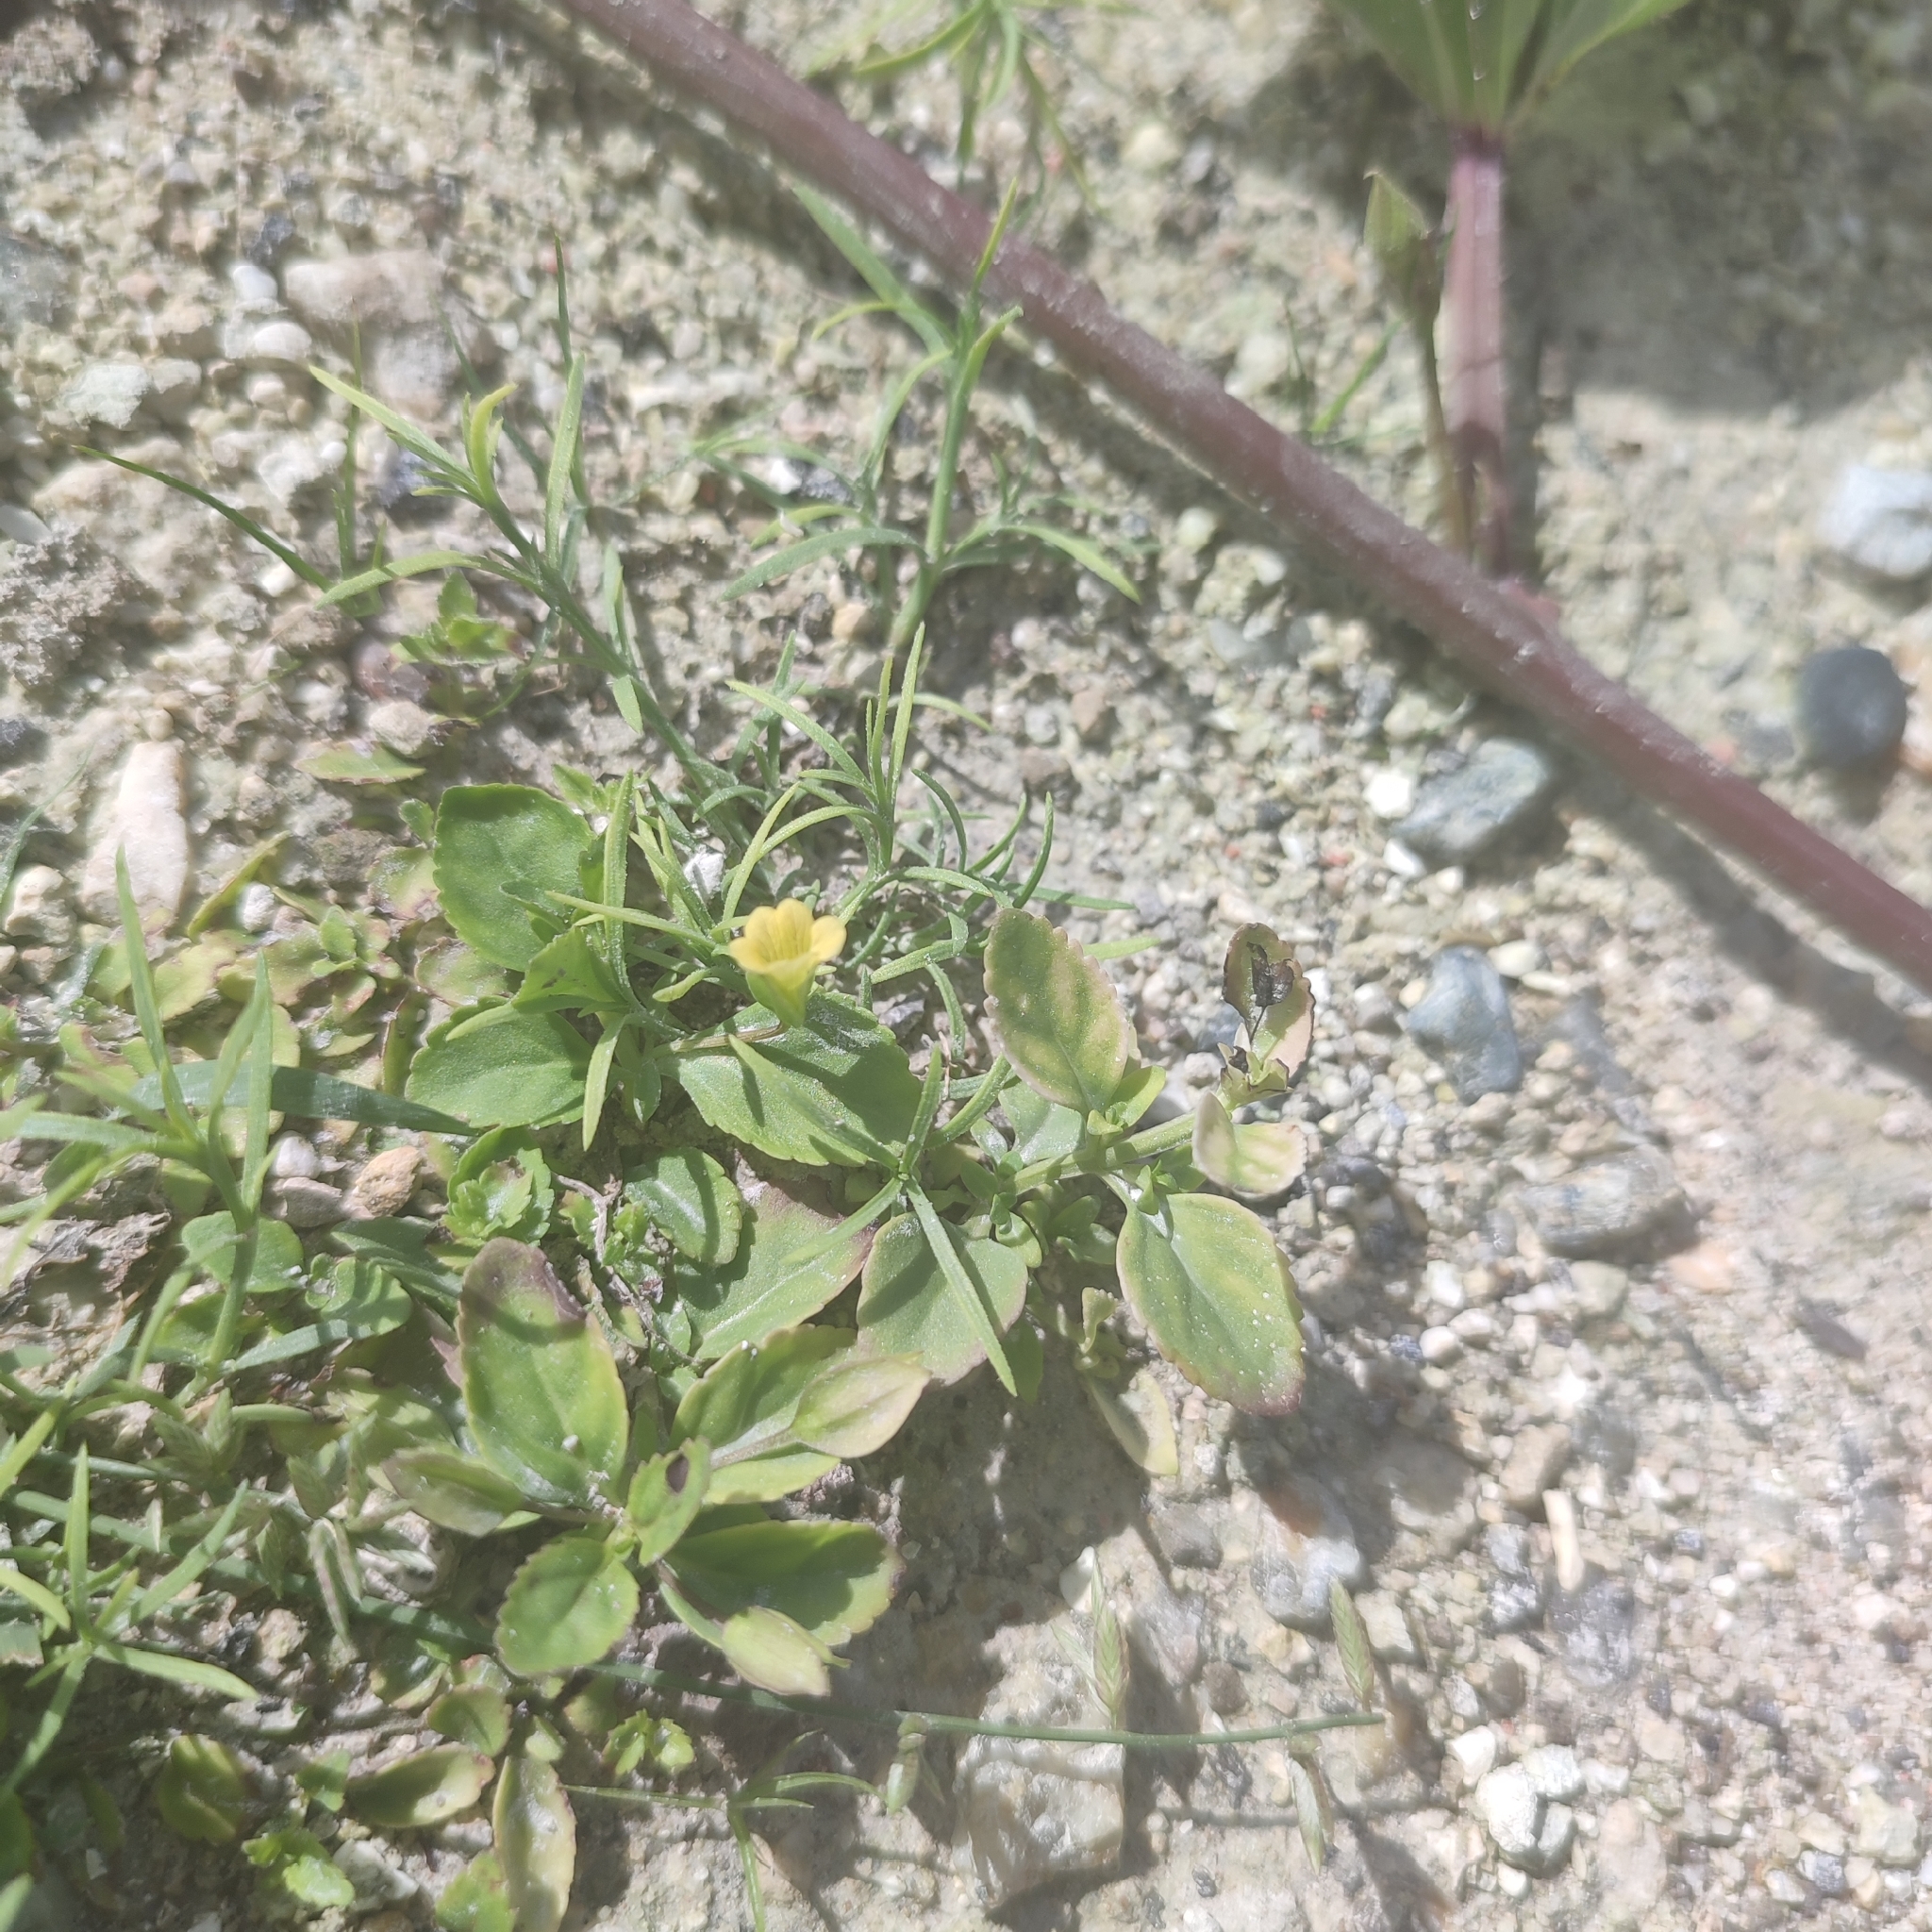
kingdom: Plantae
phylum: Tracheophyta
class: Magnoliopsida
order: Lamiales
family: Plantaginaceae
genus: Mecardonia
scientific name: Mecardonia procumbens
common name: Baby jump-up
